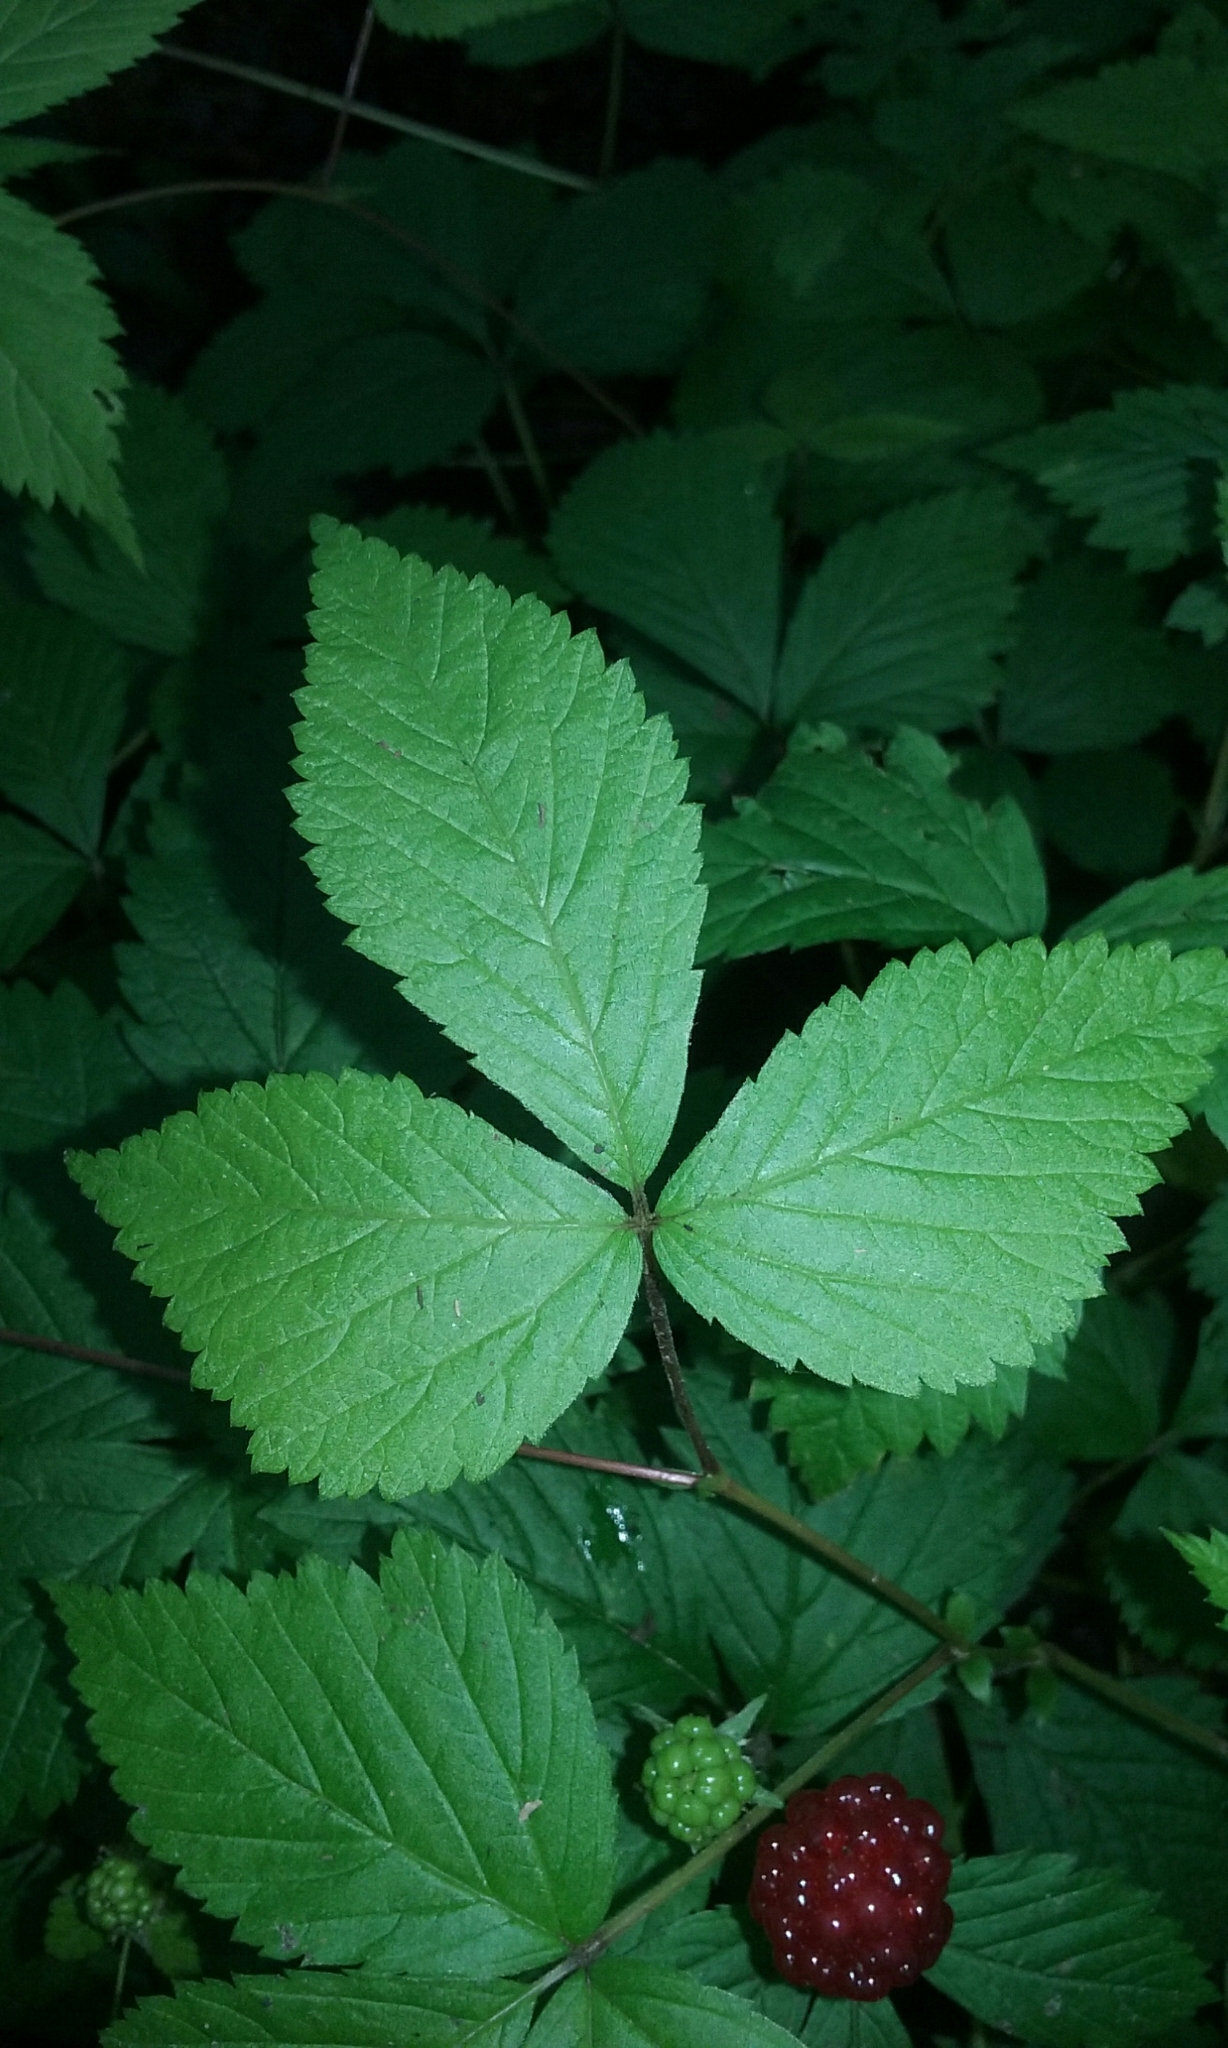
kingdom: Plantae
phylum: Tracheophyta
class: Magnoliopsida
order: Rosales
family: Rosaceae
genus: Rubus
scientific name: Rubus pubescens
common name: Dwarf raspberry
